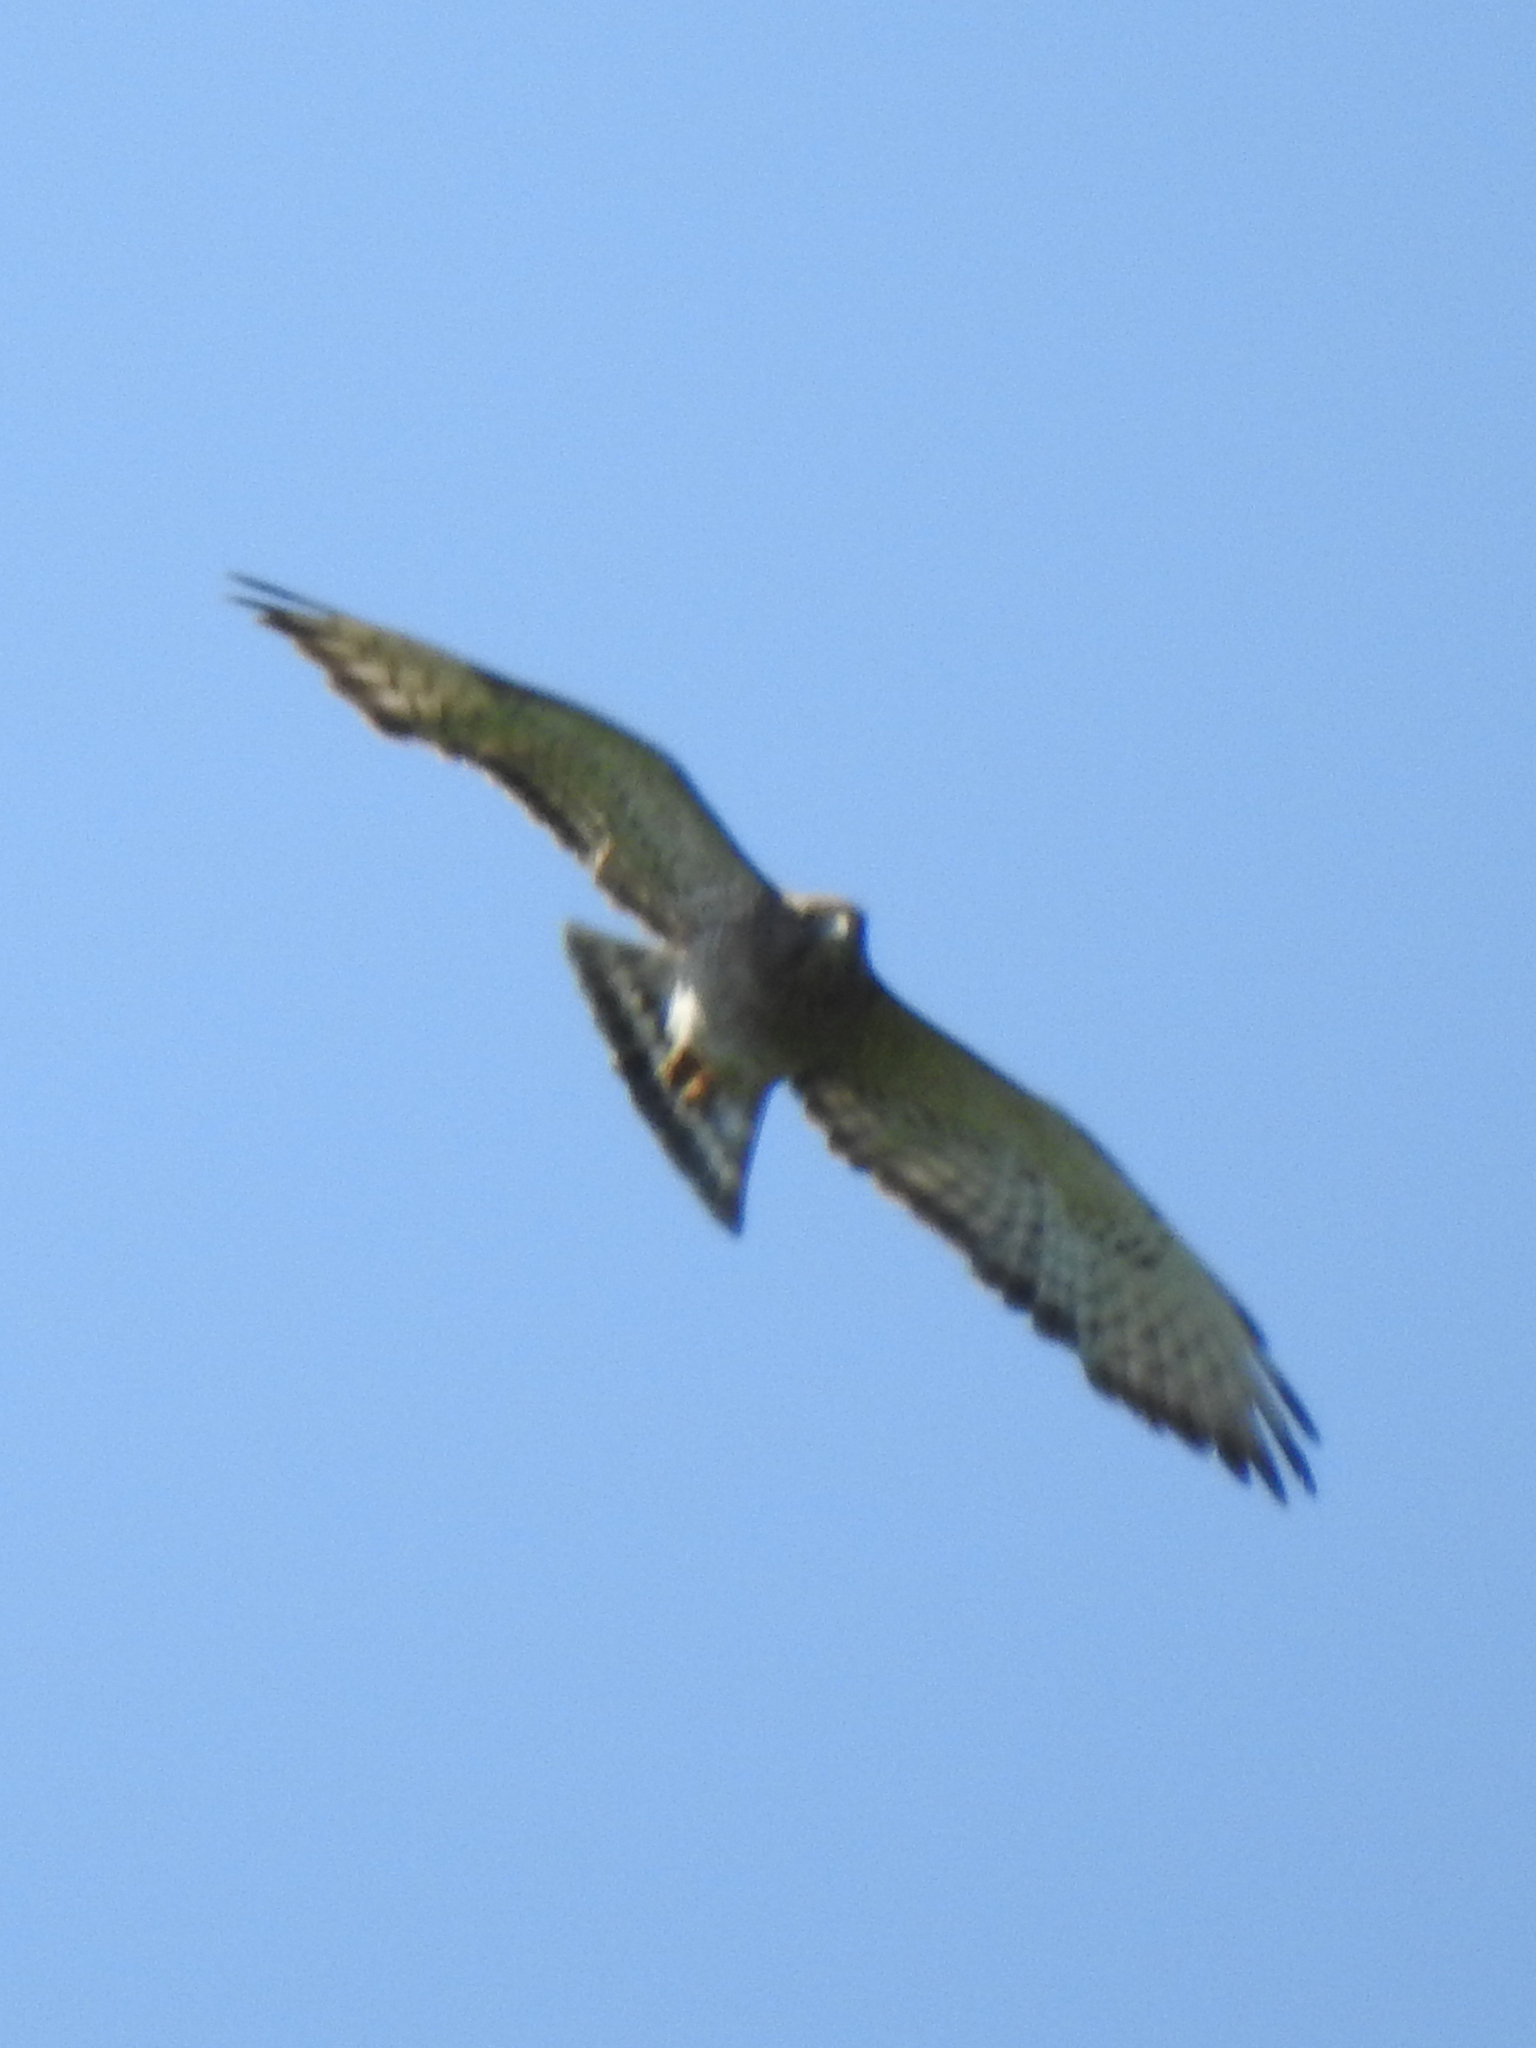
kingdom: Animalia
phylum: Chordata
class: Aves
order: Accipitriformes
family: Accipitridae
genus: Buteo
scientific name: Buteo platypterus
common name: Broad-winged hawk
